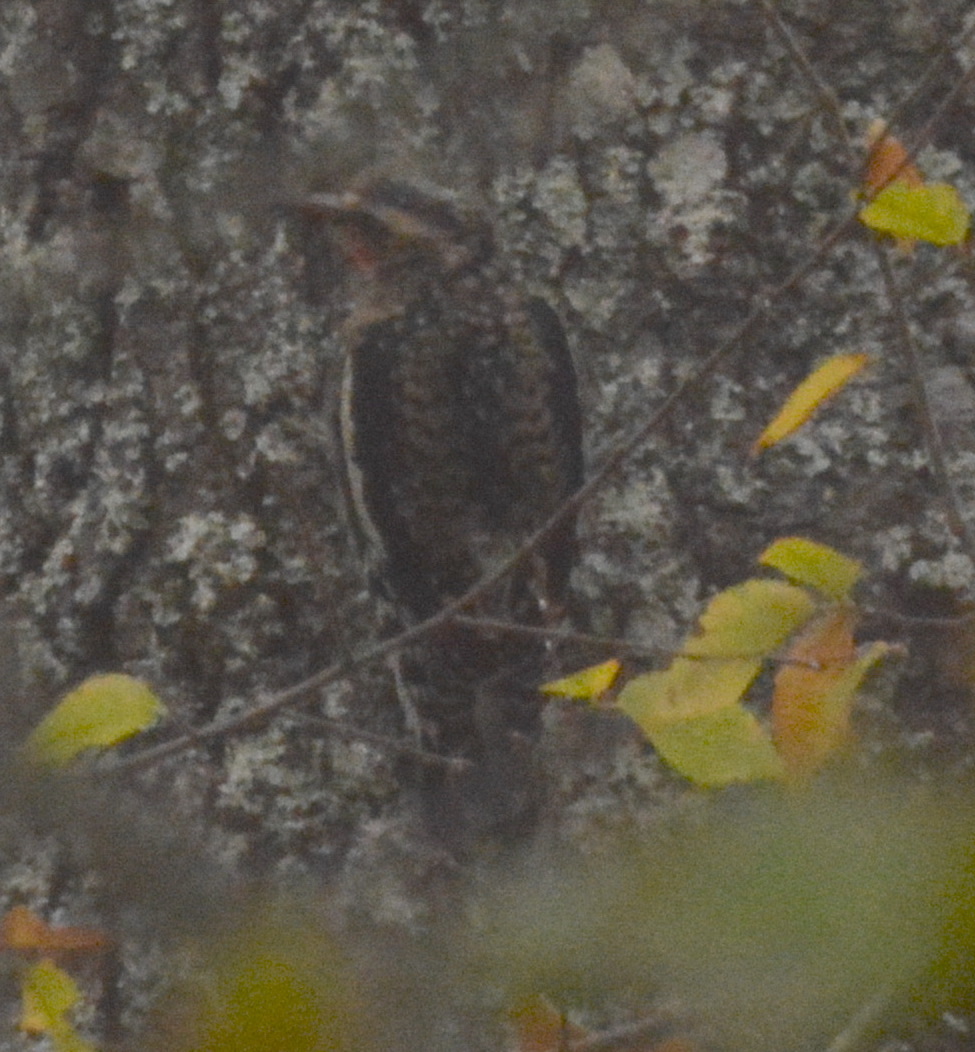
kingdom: Animalia
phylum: Chordata
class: Aves
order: Piciformes
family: Picidae
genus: Sphyrapicus
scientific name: Sphyrapicus varius
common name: Yellow-bellied sapsucker
